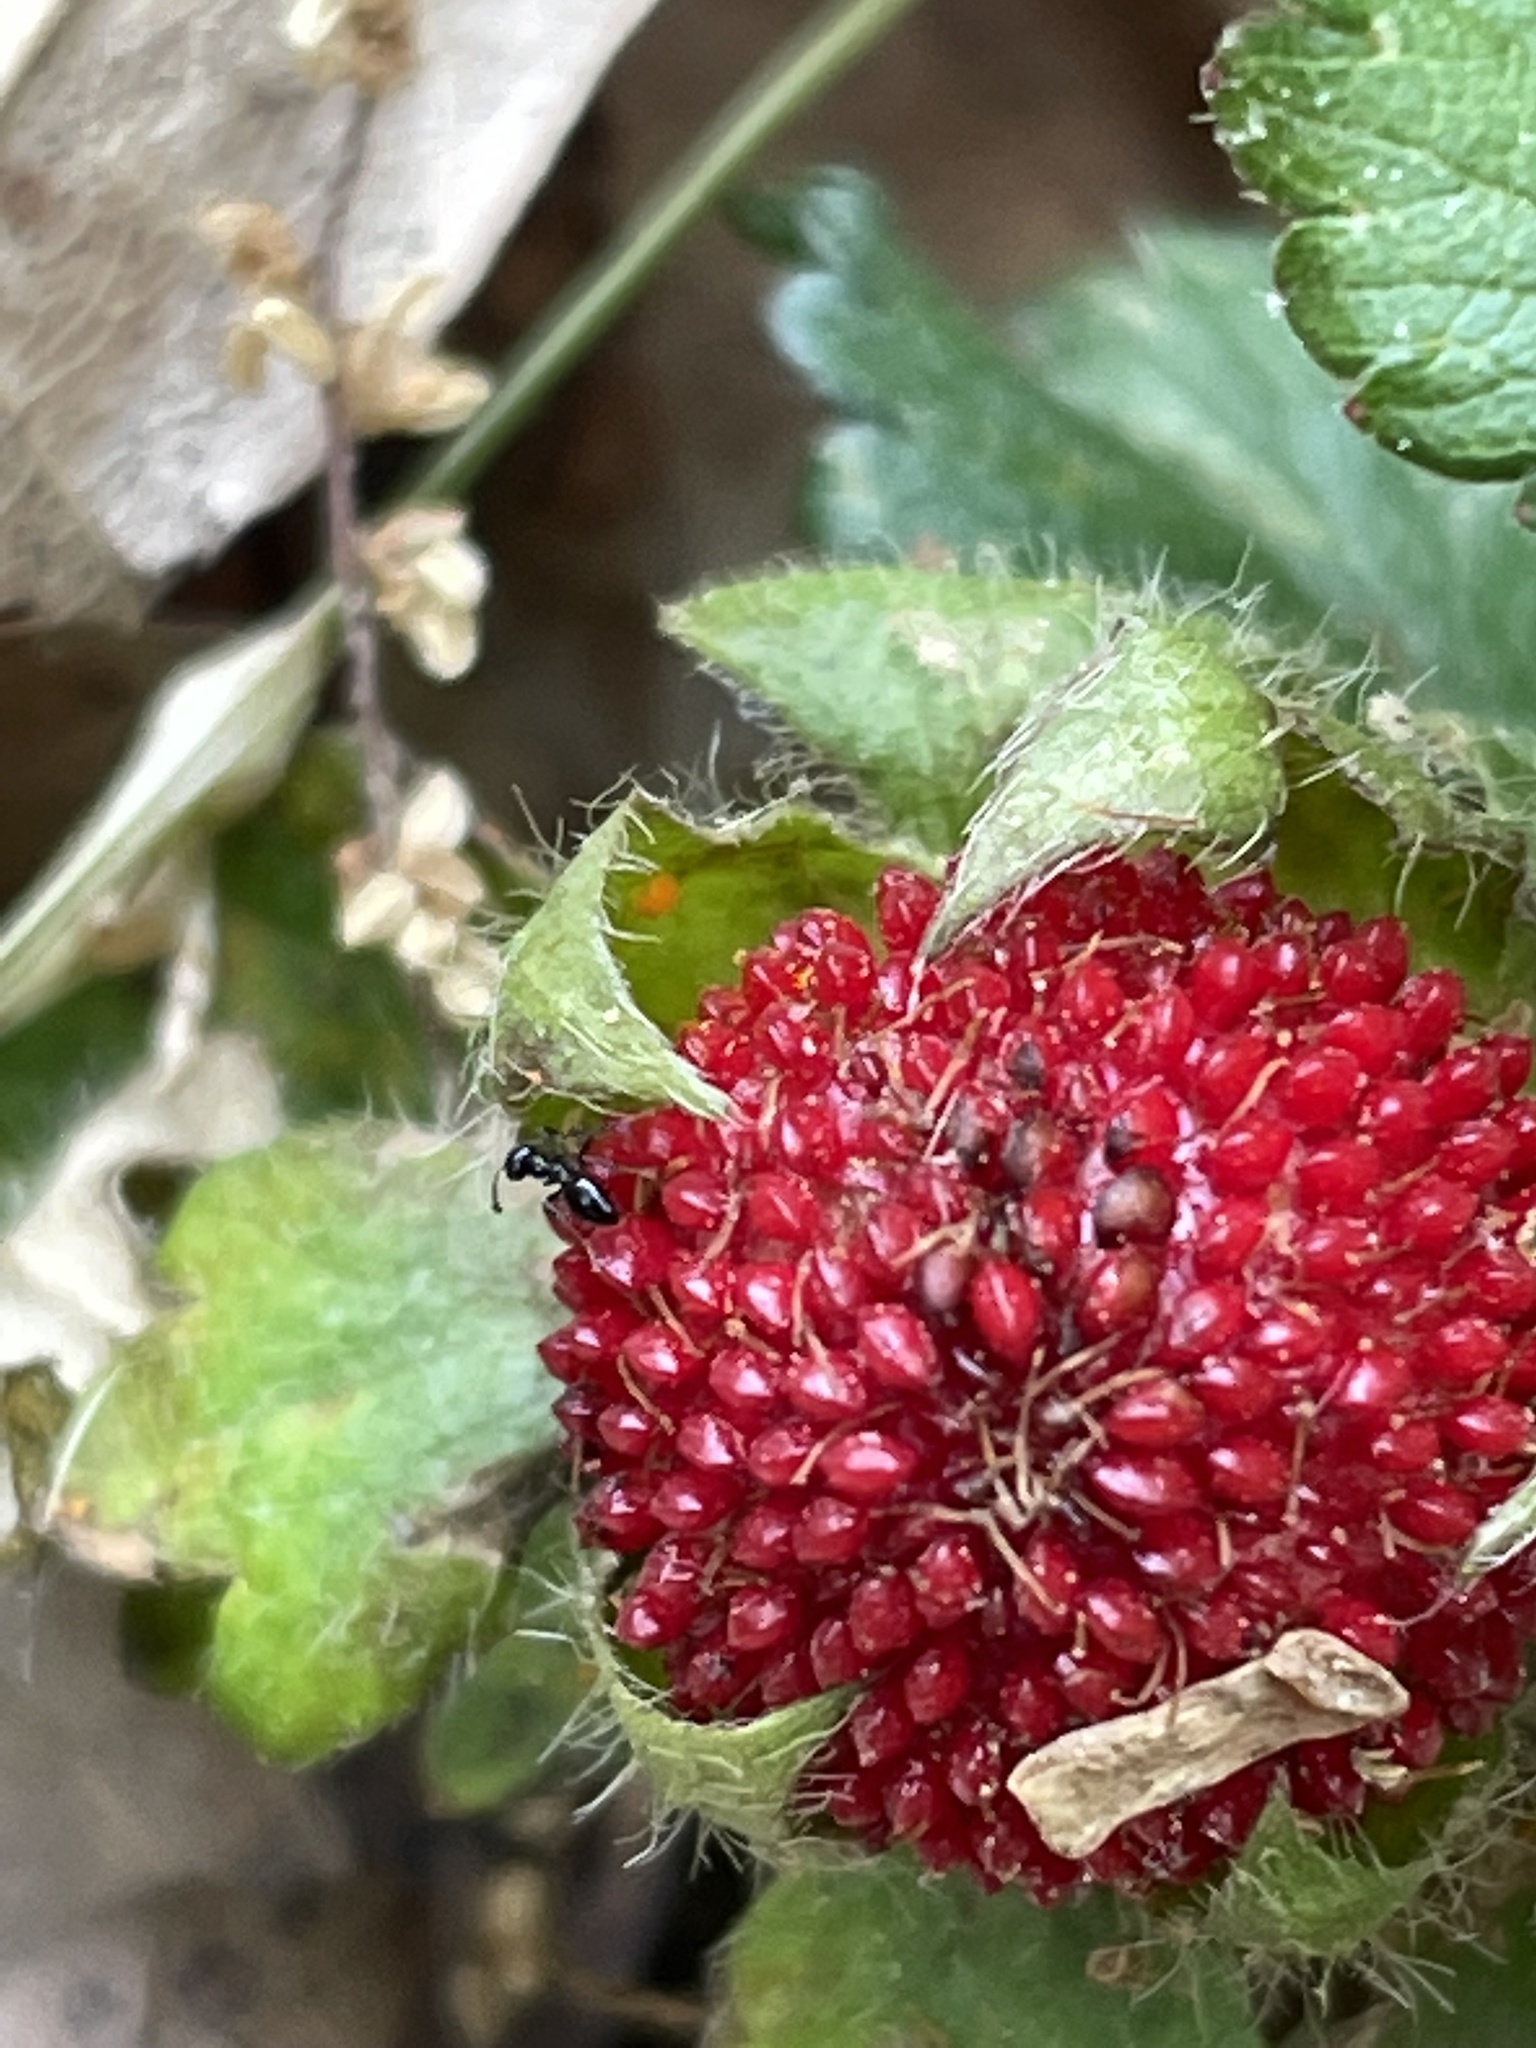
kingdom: Plantae
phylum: Tracheophyta
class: Magnoliopsida
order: Rosales
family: Rosaceae
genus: Potentilla
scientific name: Potentilla indica
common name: Yellow-flowered strawberry
